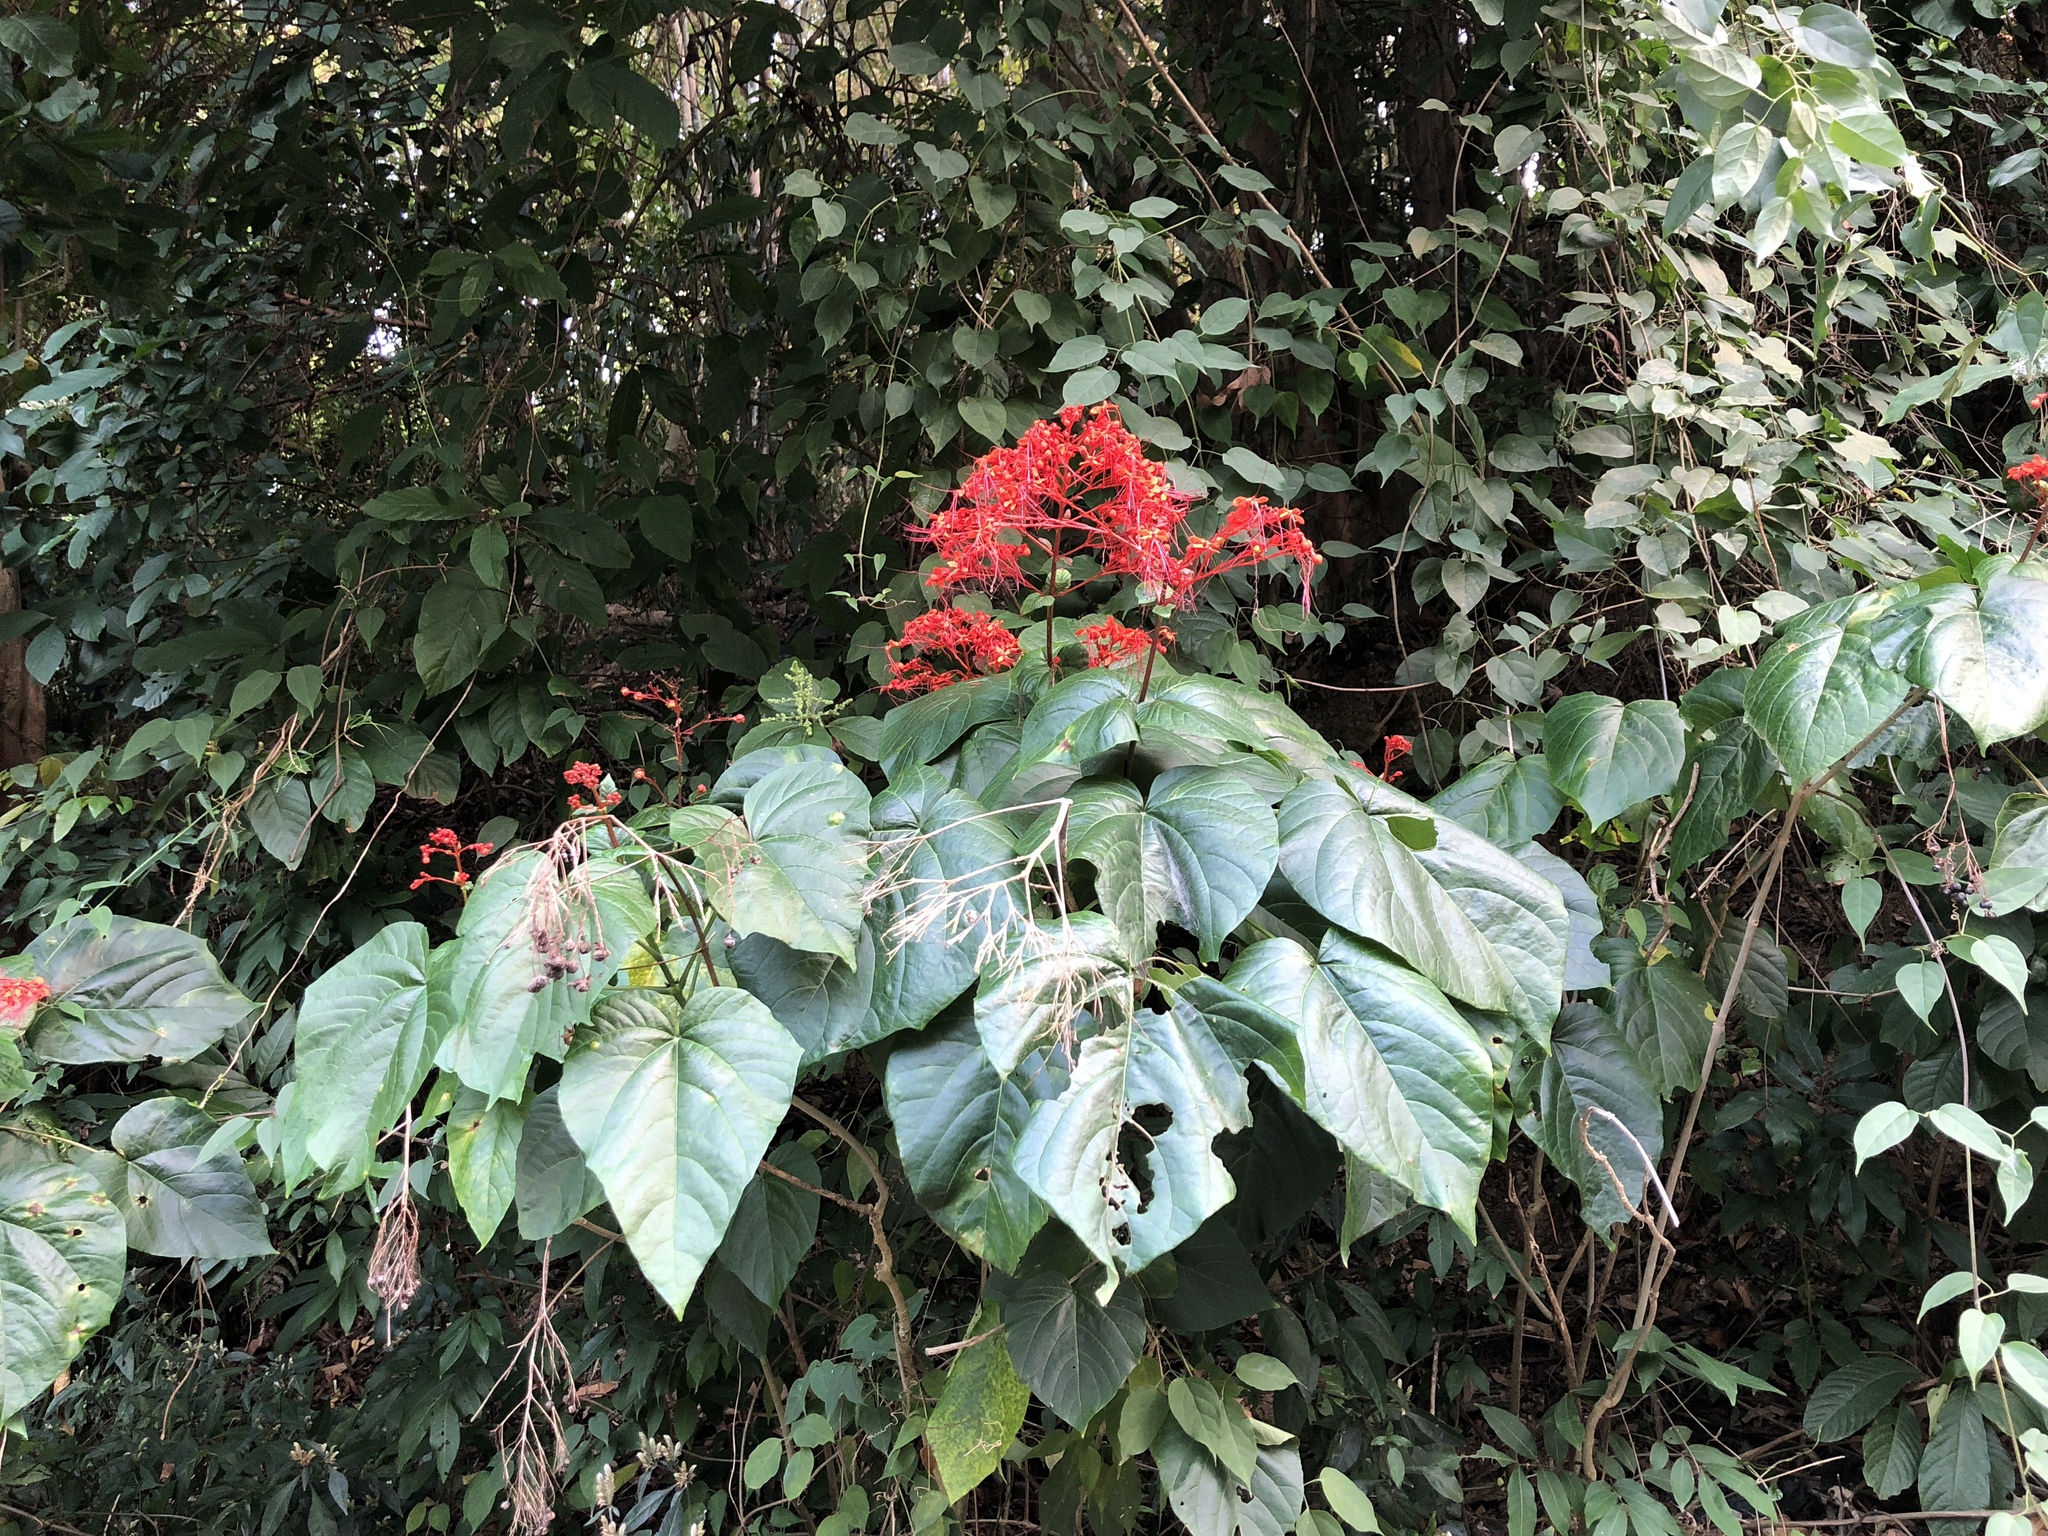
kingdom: Plantae
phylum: Tracheophyta
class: Magnoliopsida
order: Lamiales
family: Lamiaceae
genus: Clerodendrum
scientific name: Clerodendrum japonicum
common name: Japanese glorybower
